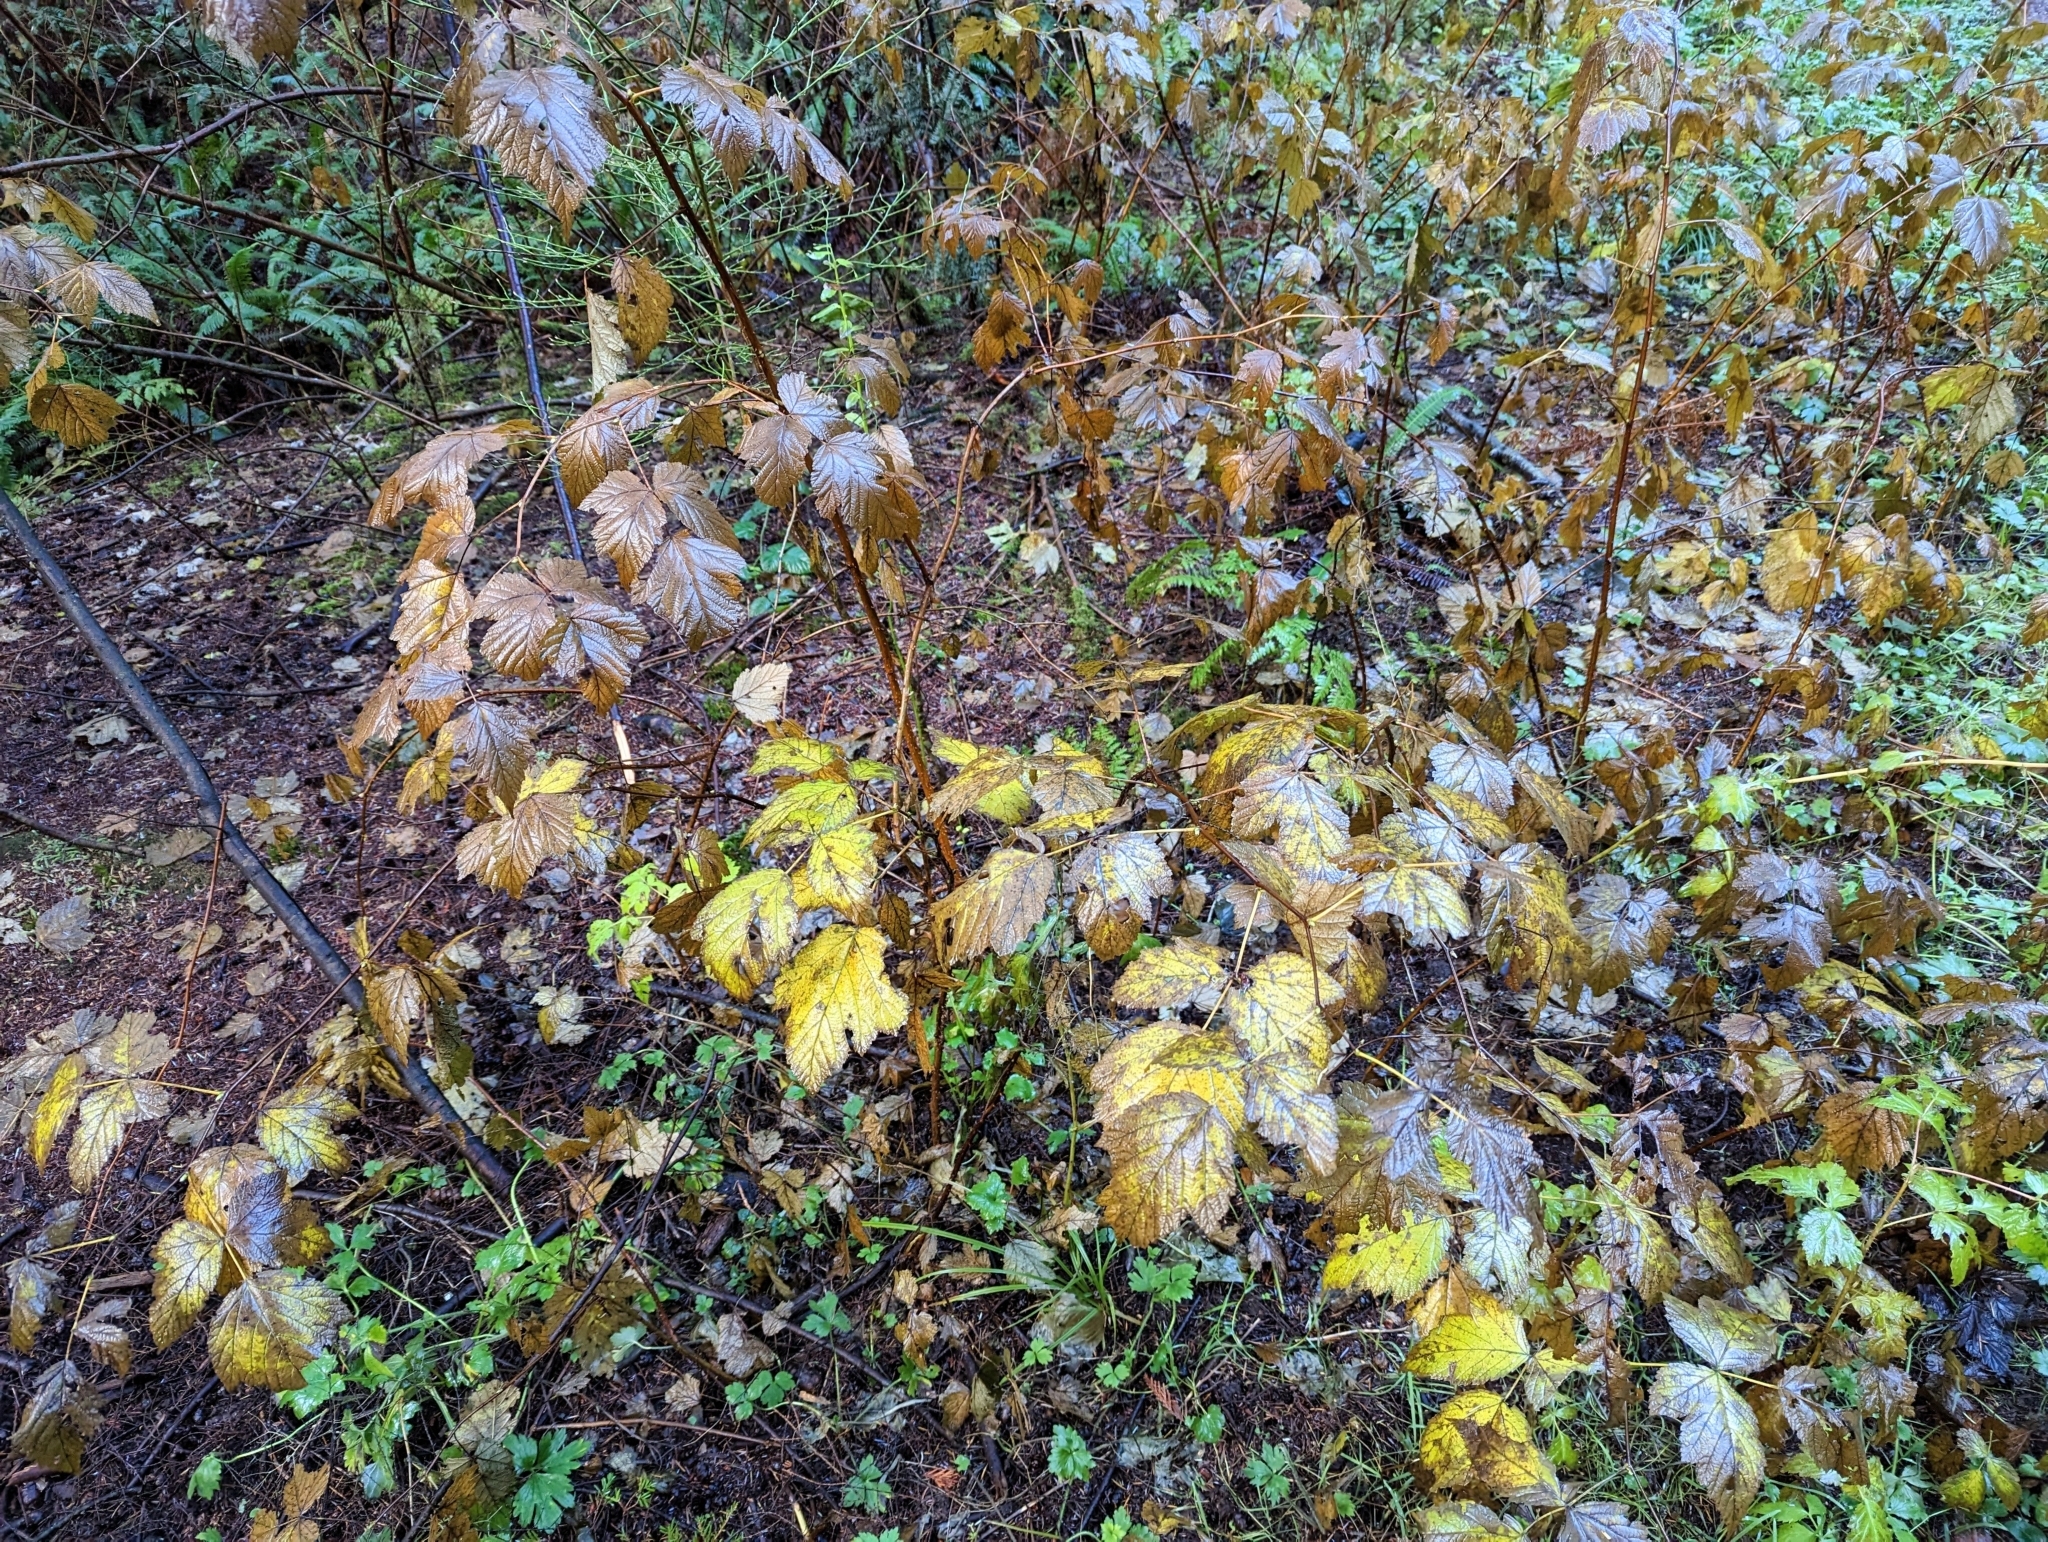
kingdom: Plantae
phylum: Tracheophyta
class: Magnoliopsida
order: Rosales
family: Rosaceae
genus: Rubus
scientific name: Rubus spectabilis
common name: Salmonberry
